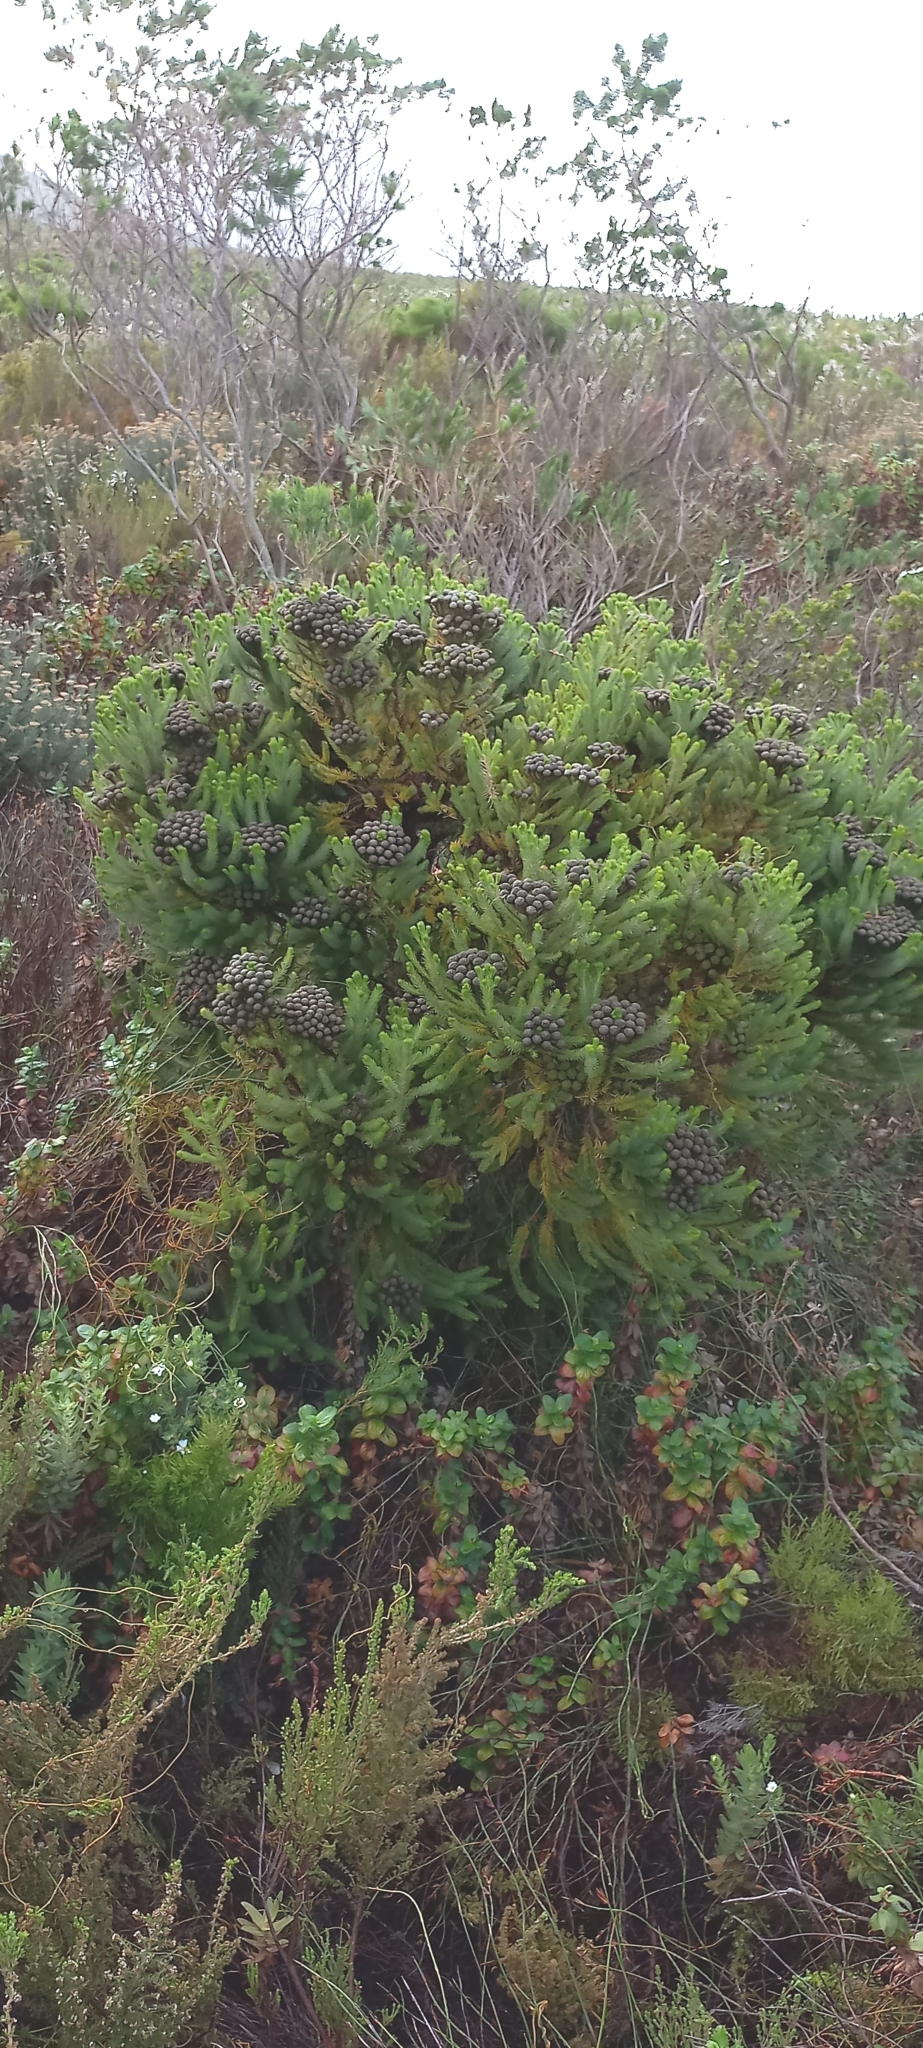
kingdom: Plantae
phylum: Tracheophyta
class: Magnoliopsida
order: Bruniales
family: Bruniaceae
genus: Berzelia
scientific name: Berzelia albiflora
